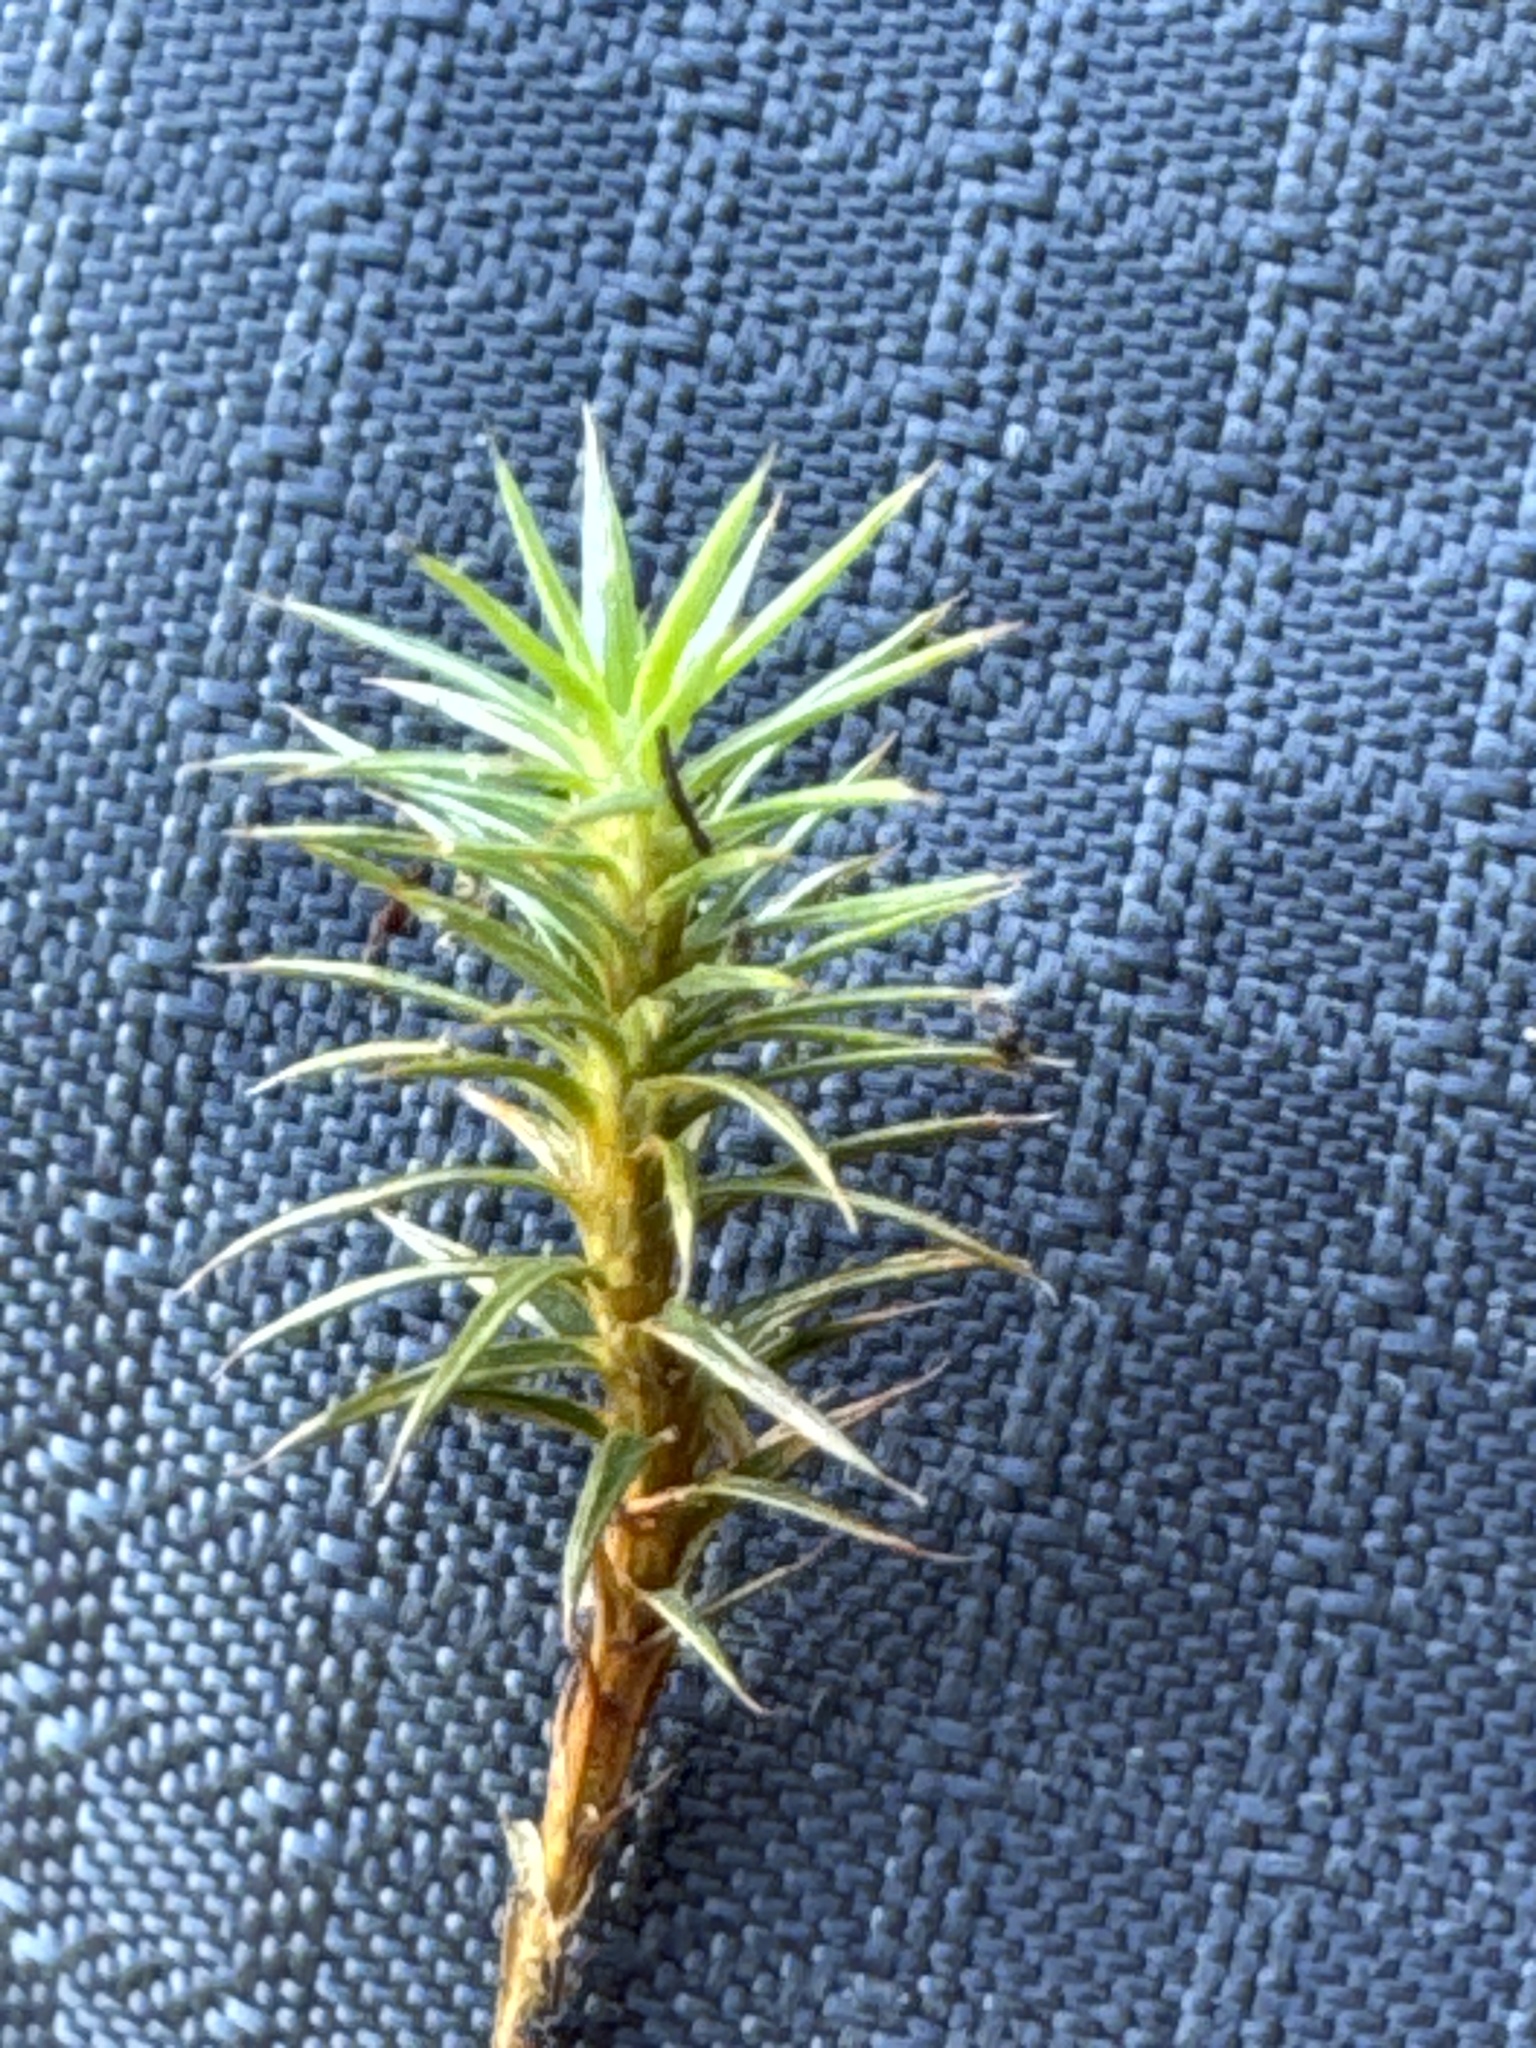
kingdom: Plantae
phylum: Bryophyta
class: Polytrichopsida
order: Polytrichales
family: Polytrichaceae
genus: Polytrichum
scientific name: Polytrichum juniperinum
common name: Juniper haircap moss
